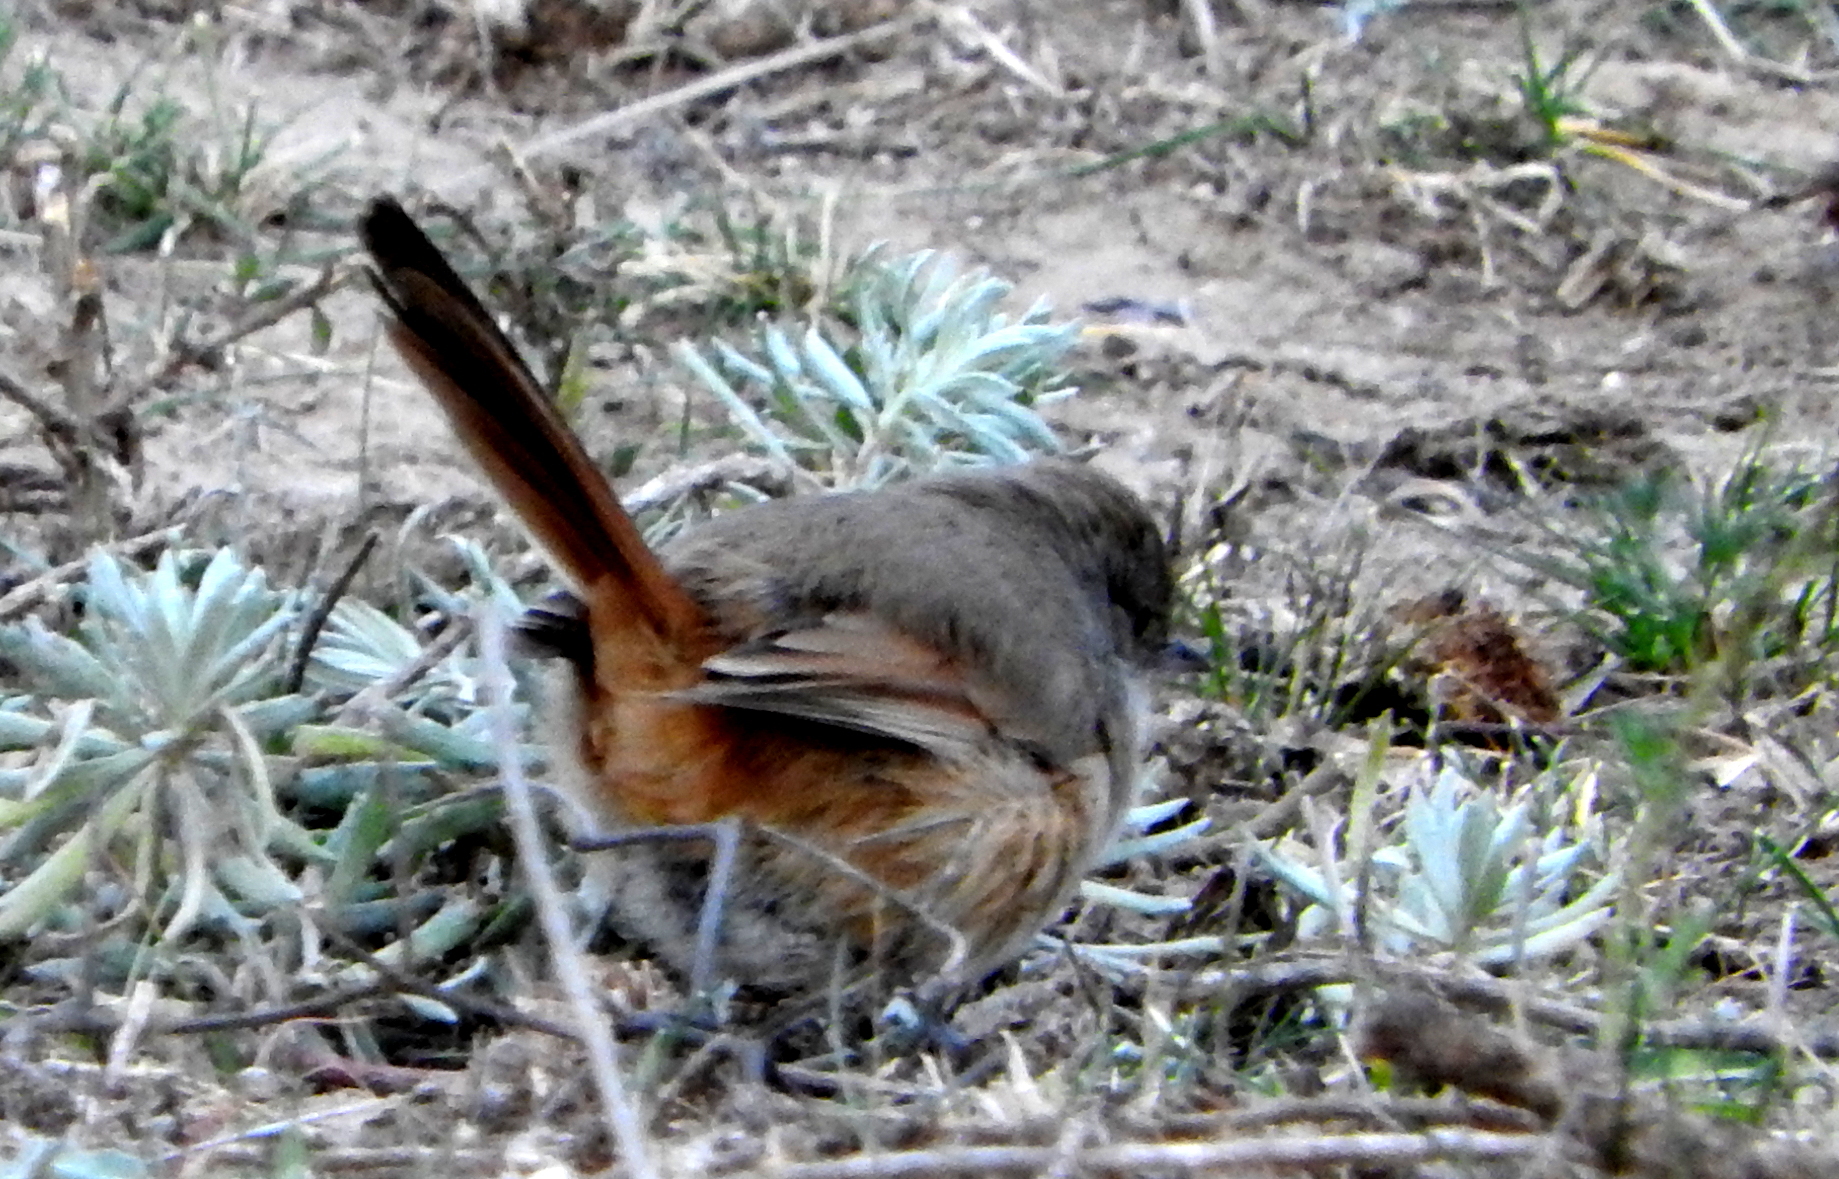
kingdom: Animalia
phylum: Chordata
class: Aves
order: Passeriformes
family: Furnariidae
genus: Asthenes
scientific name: Asthenes baeri
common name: Short-billed canastero
